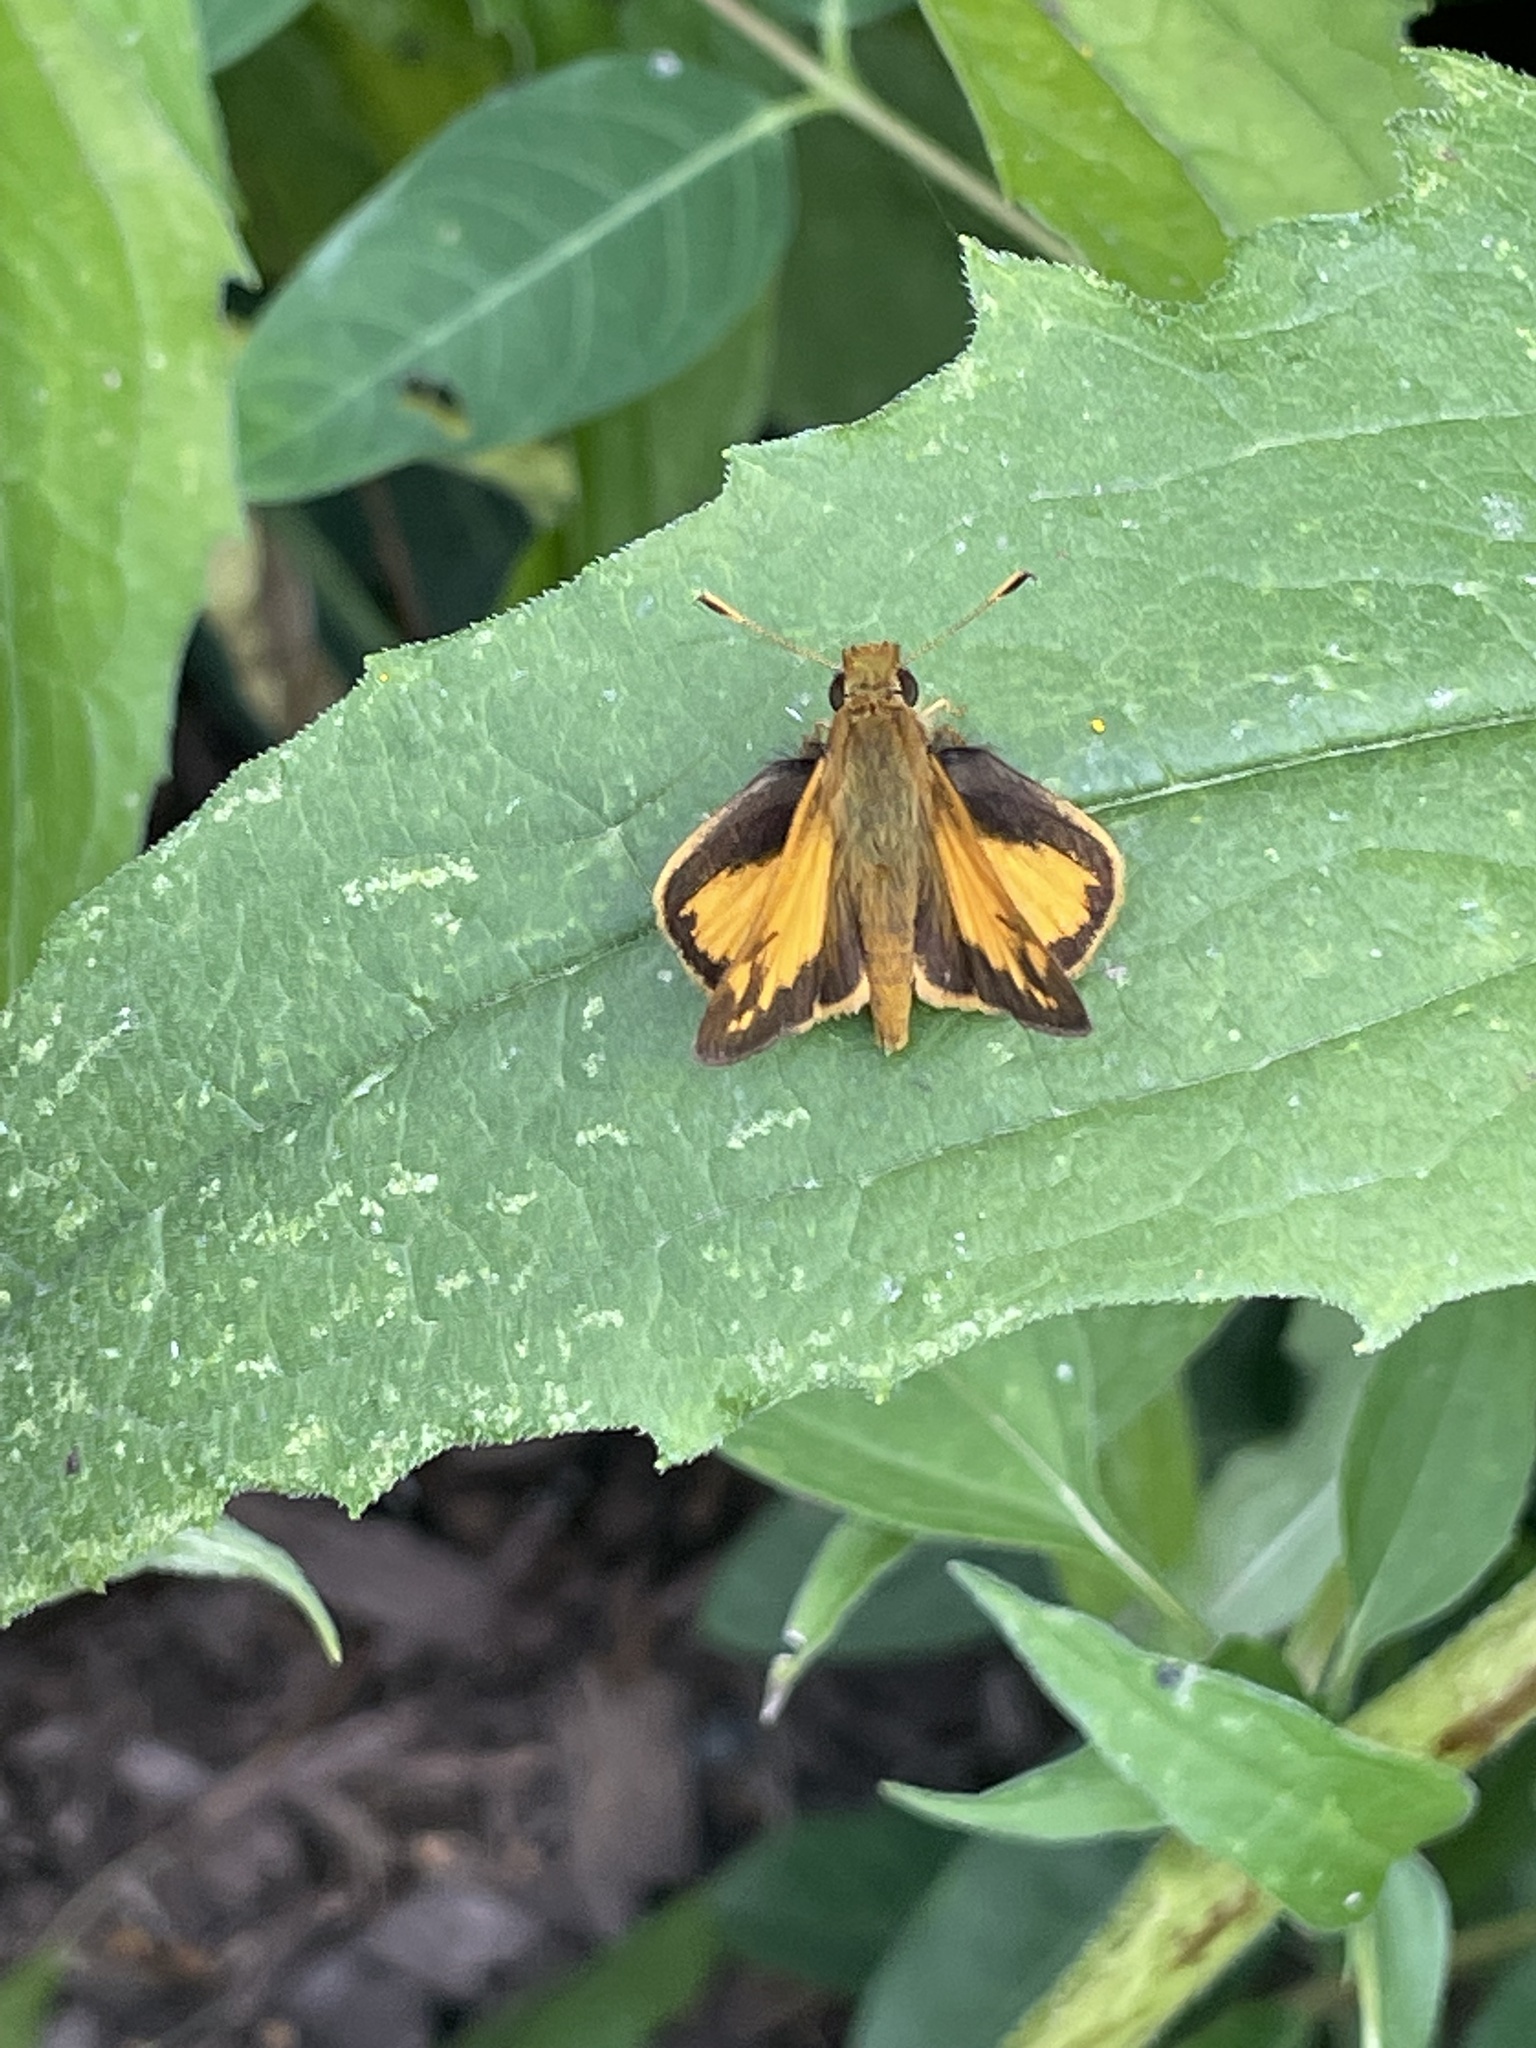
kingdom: Animalia
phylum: Arthropoda
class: Insecta
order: Lepidoptera
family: Hesperiidae
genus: Lon
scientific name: Lon zabulon
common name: Zabulon skipper
